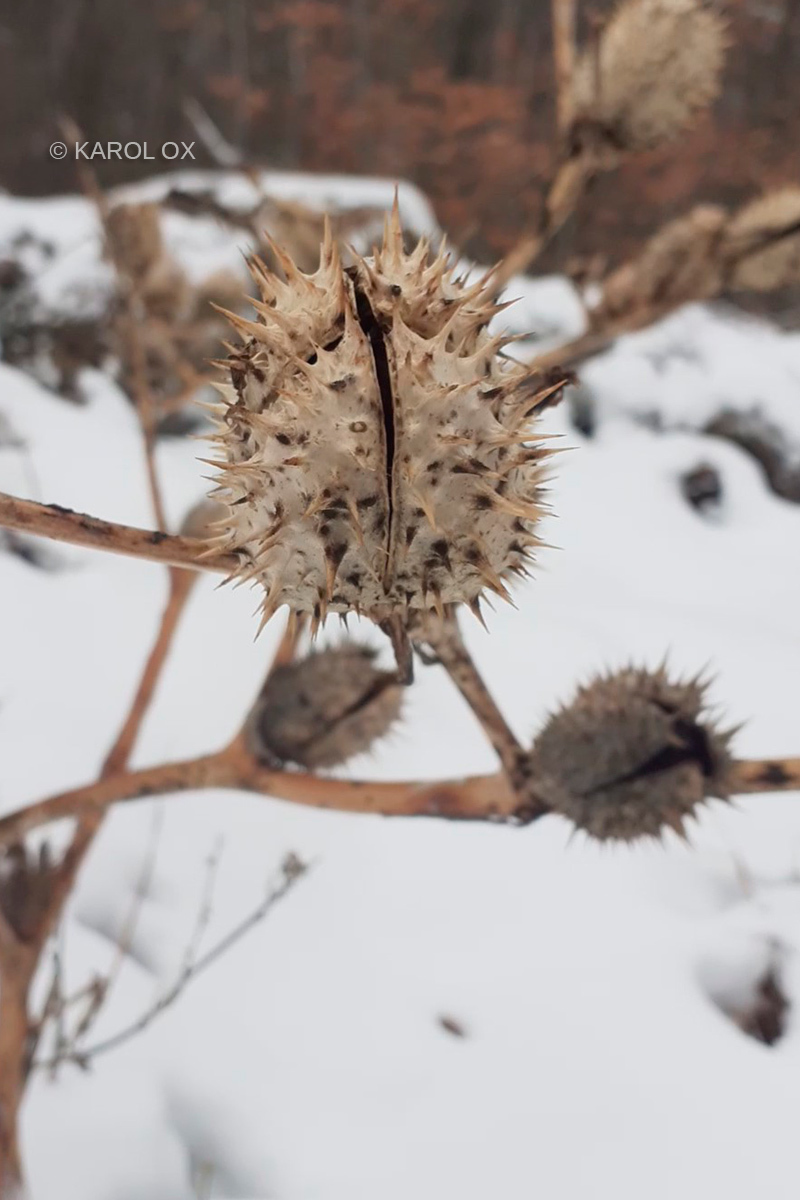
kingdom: Plantae
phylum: Tracheophyta
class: Magnoliopsida
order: Solanales
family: Solanaceae
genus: Datura
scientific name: Datura stramonium
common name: Thorn-apple
